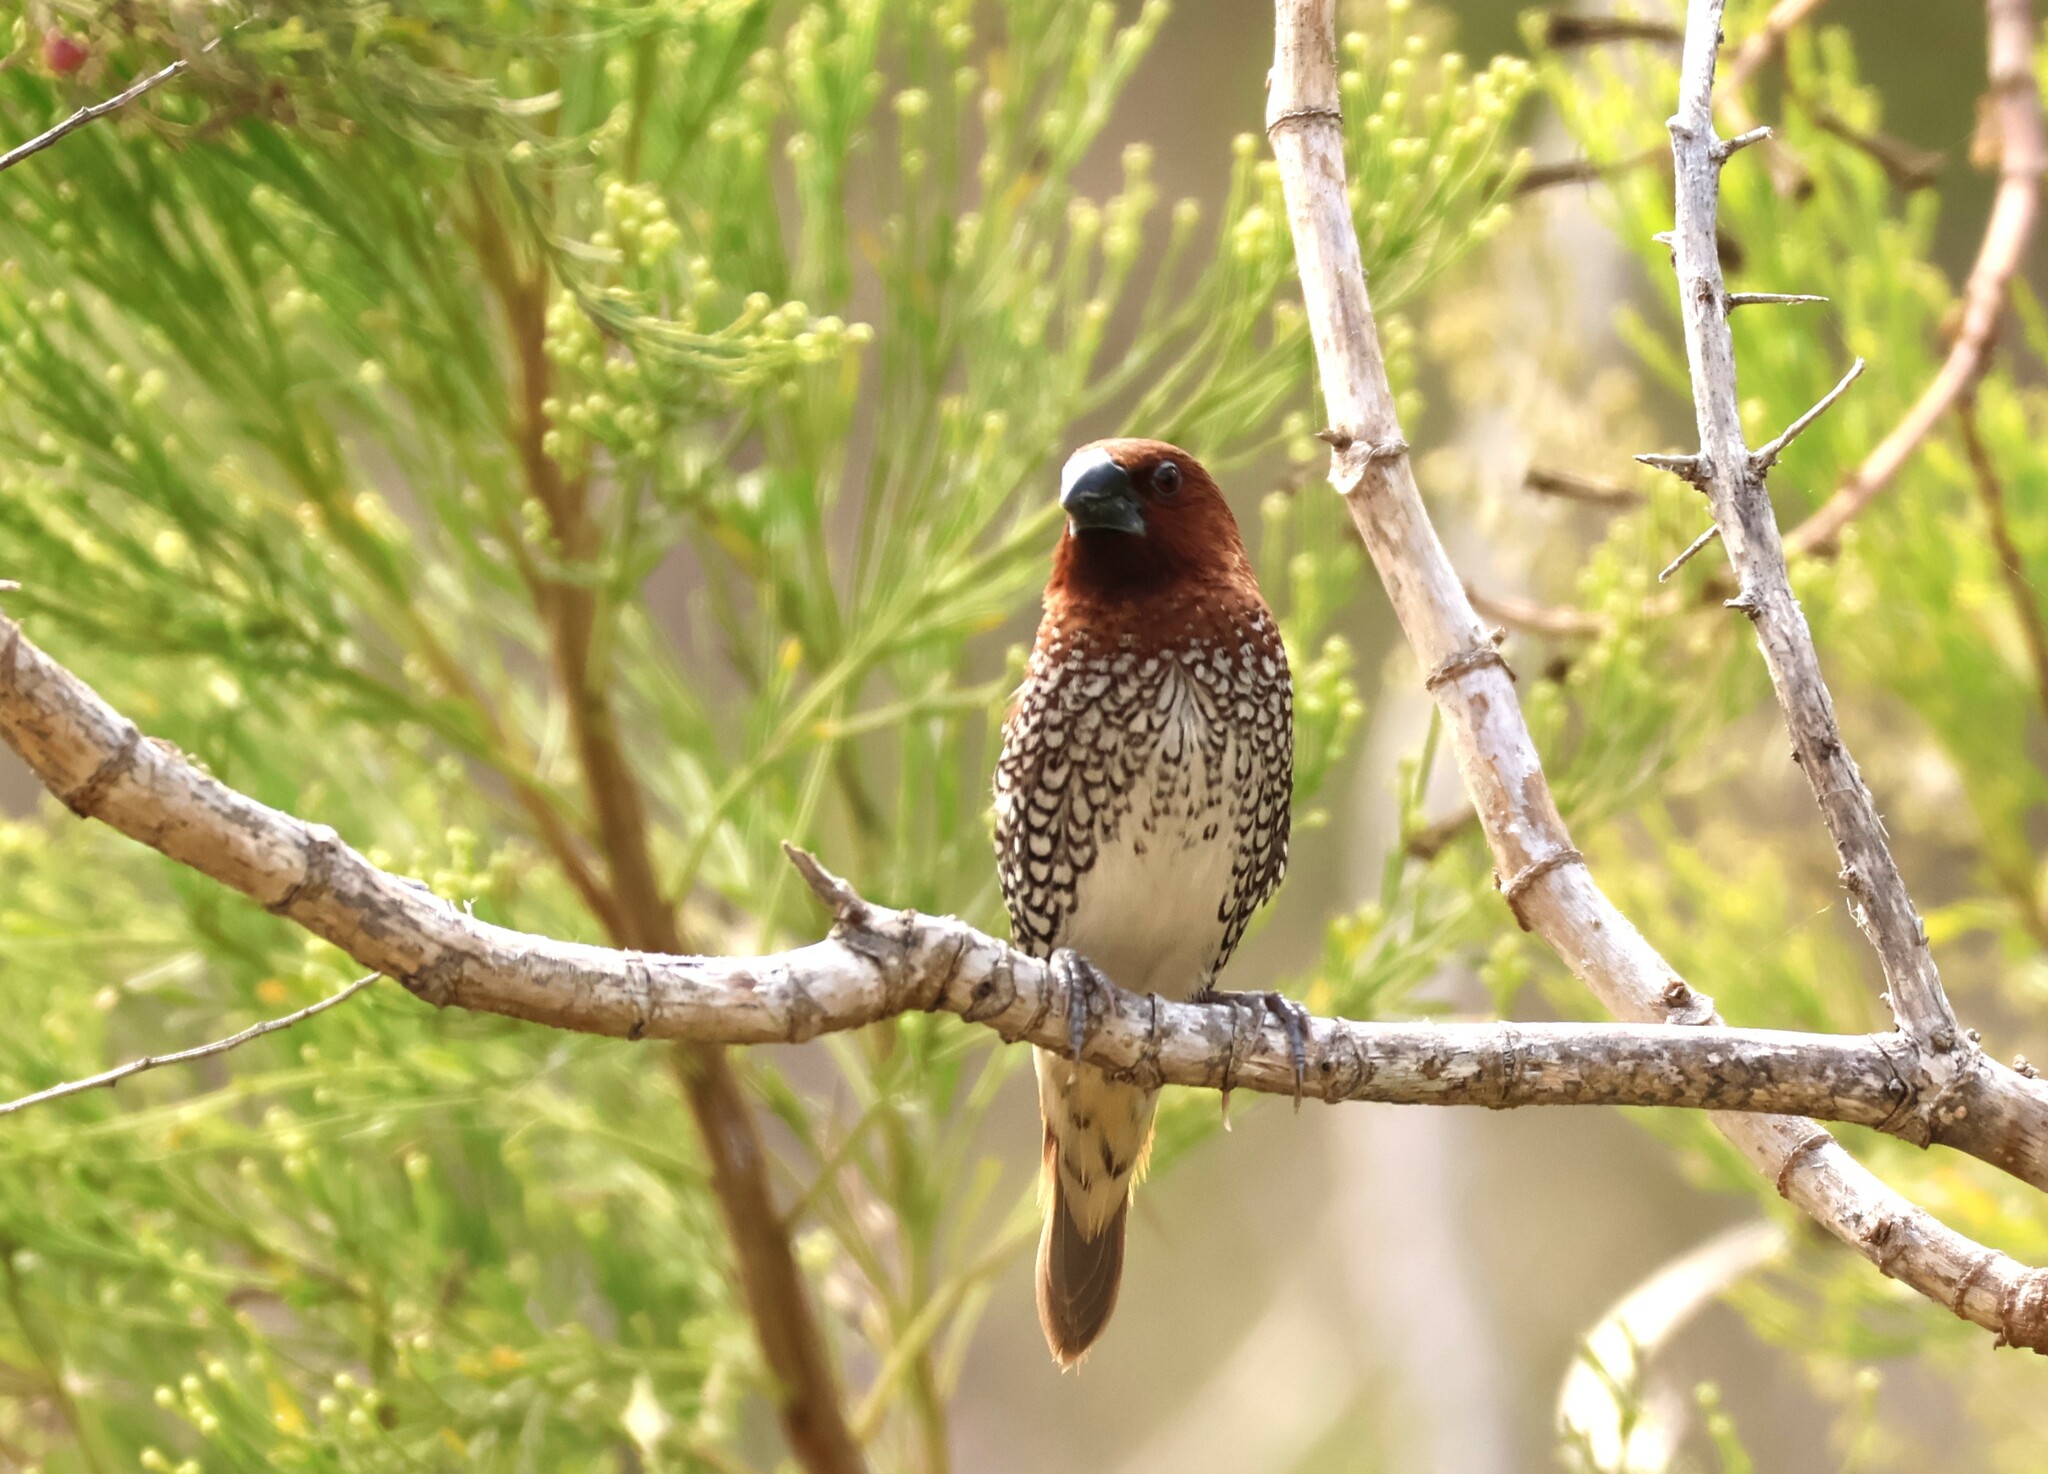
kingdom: Animalia
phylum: Chordata
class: Aves
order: Passeriformes
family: Estrildidae
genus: Lonchura
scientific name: Lonchura punctulata
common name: Scaly-breasted munia
